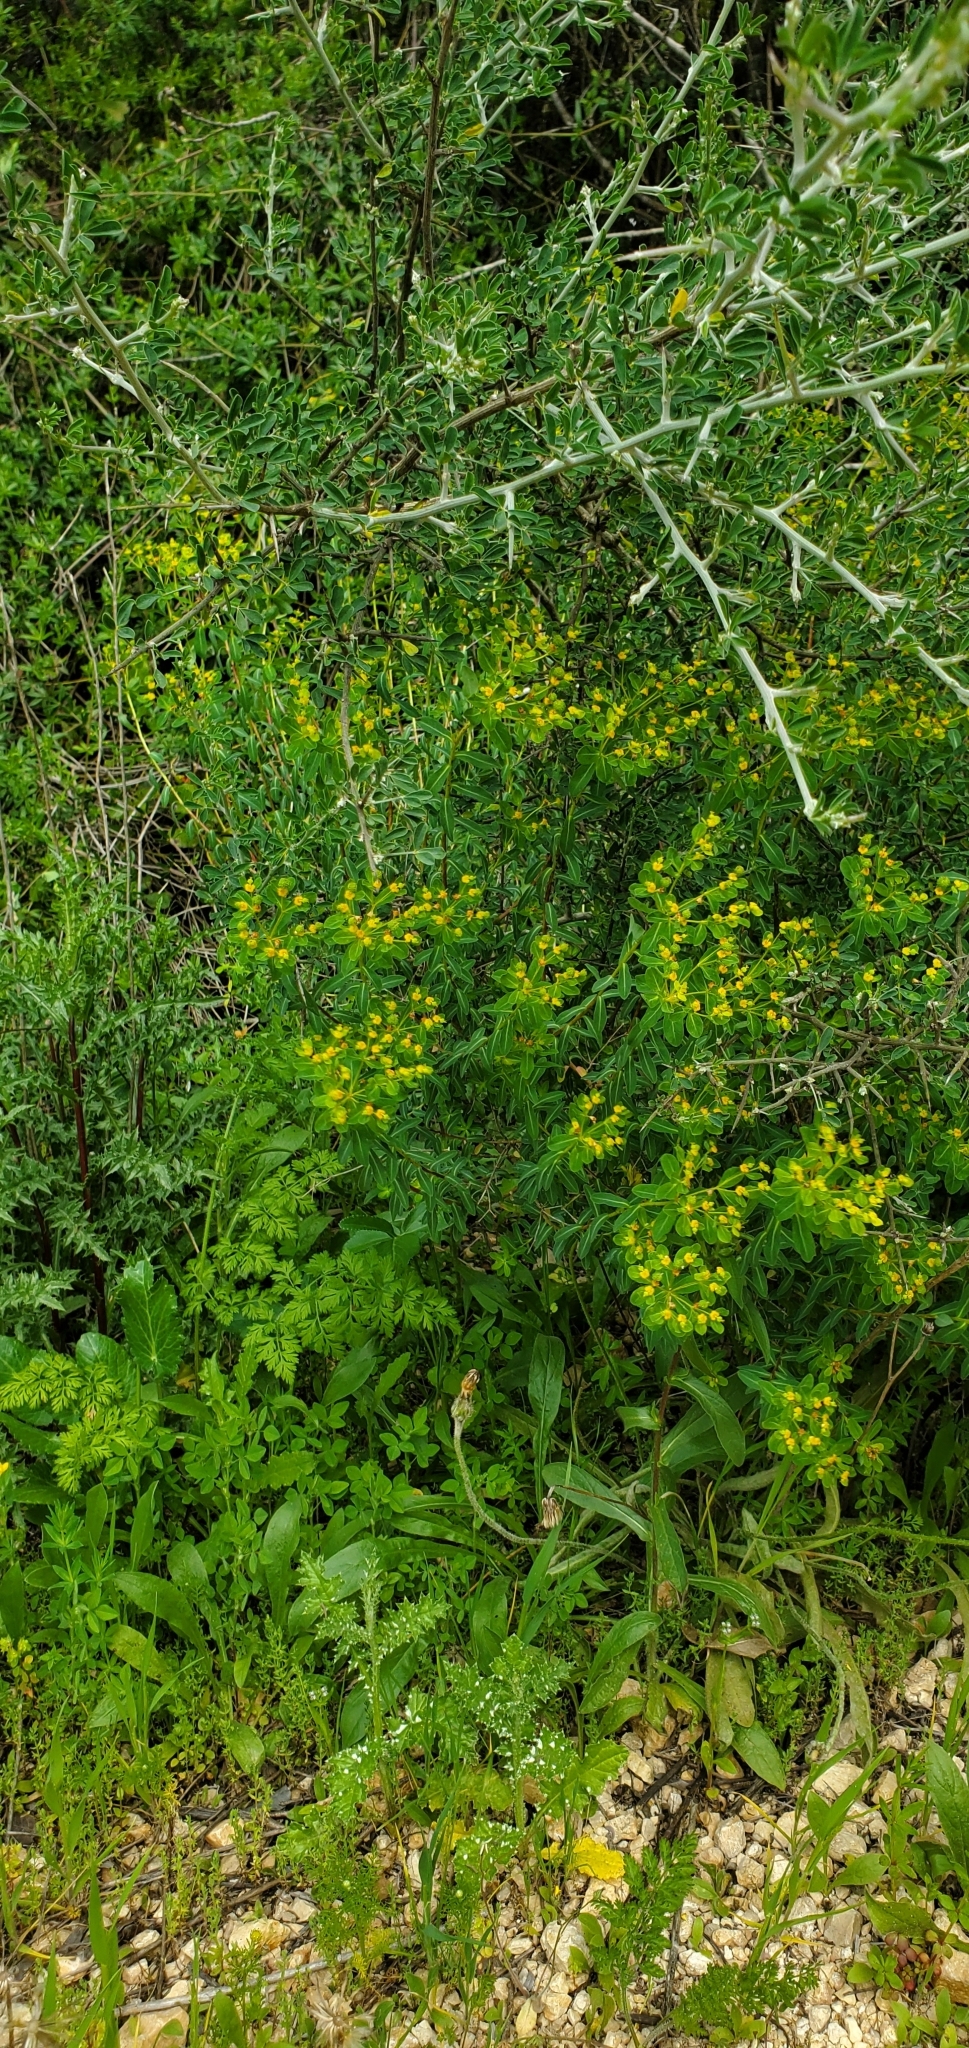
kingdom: Plantae
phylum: Tracheophyta
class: Magnoliopsida
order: Malpighiales
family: Euphorbiaceae
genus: Euphorbia
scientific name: Euphorbia hierosolymitana
